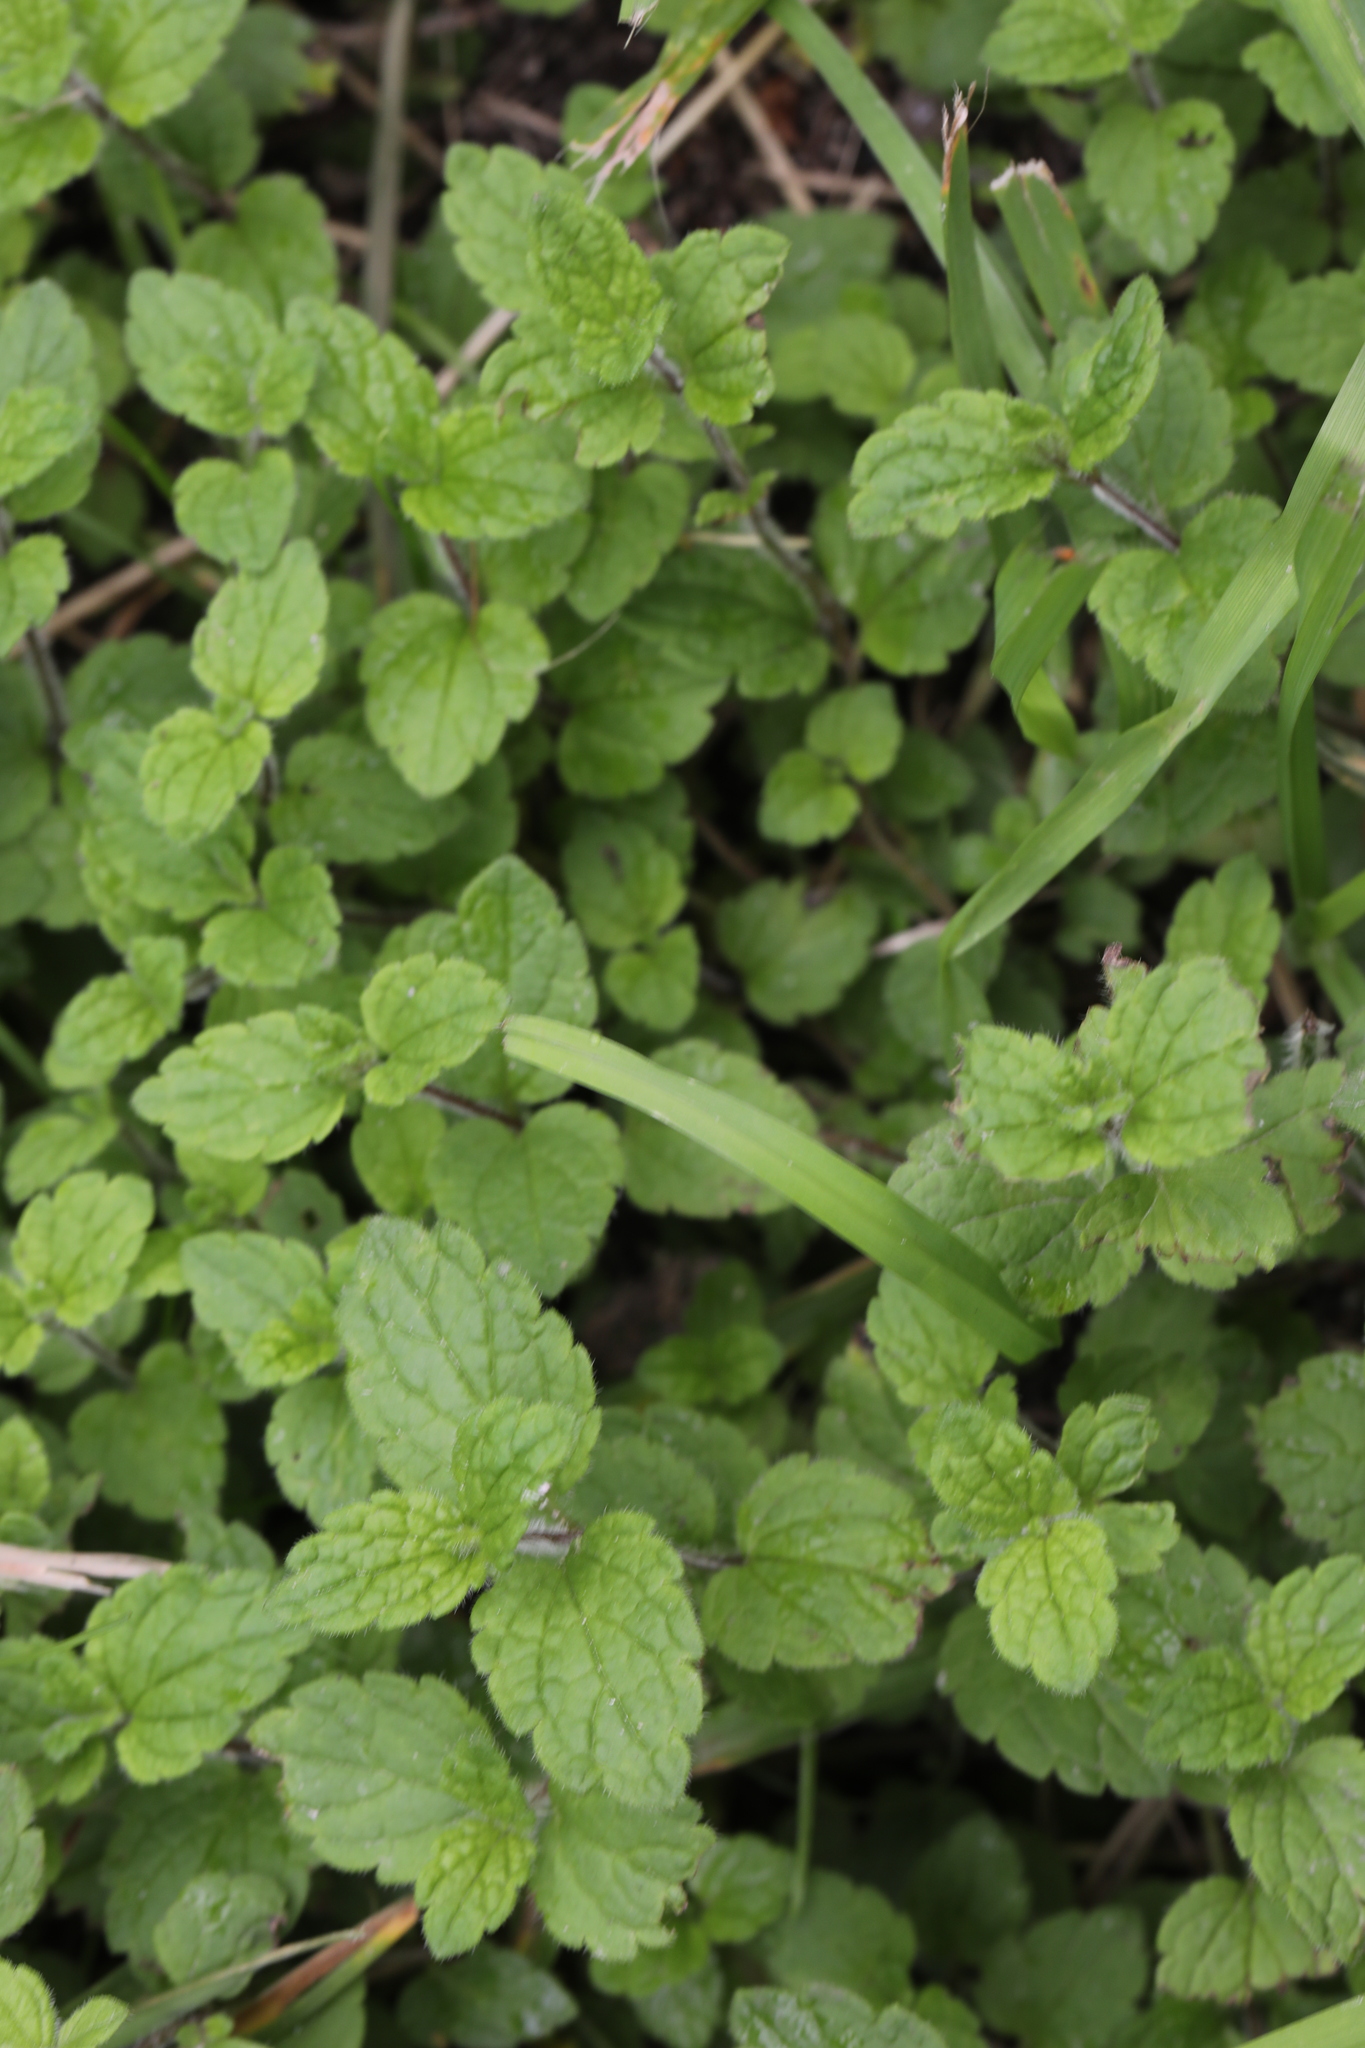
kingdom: Plantae
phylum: Tracheophyta
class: Magnoliopsida
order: Lamiales
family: Plantaginaceae
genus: Veronica
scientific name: Veronica chamaedrys
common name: Germander speedwell
